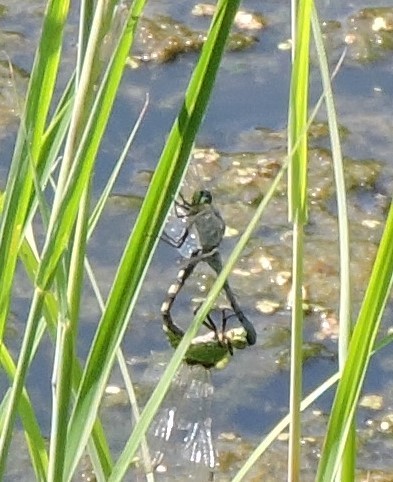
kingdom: Animalia
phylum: Arthropoda
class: Insecta
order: Odonata
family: Libellulidae
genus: Erythemis
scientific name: Erythemis simplicicollis
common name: Eastern pondhawk
